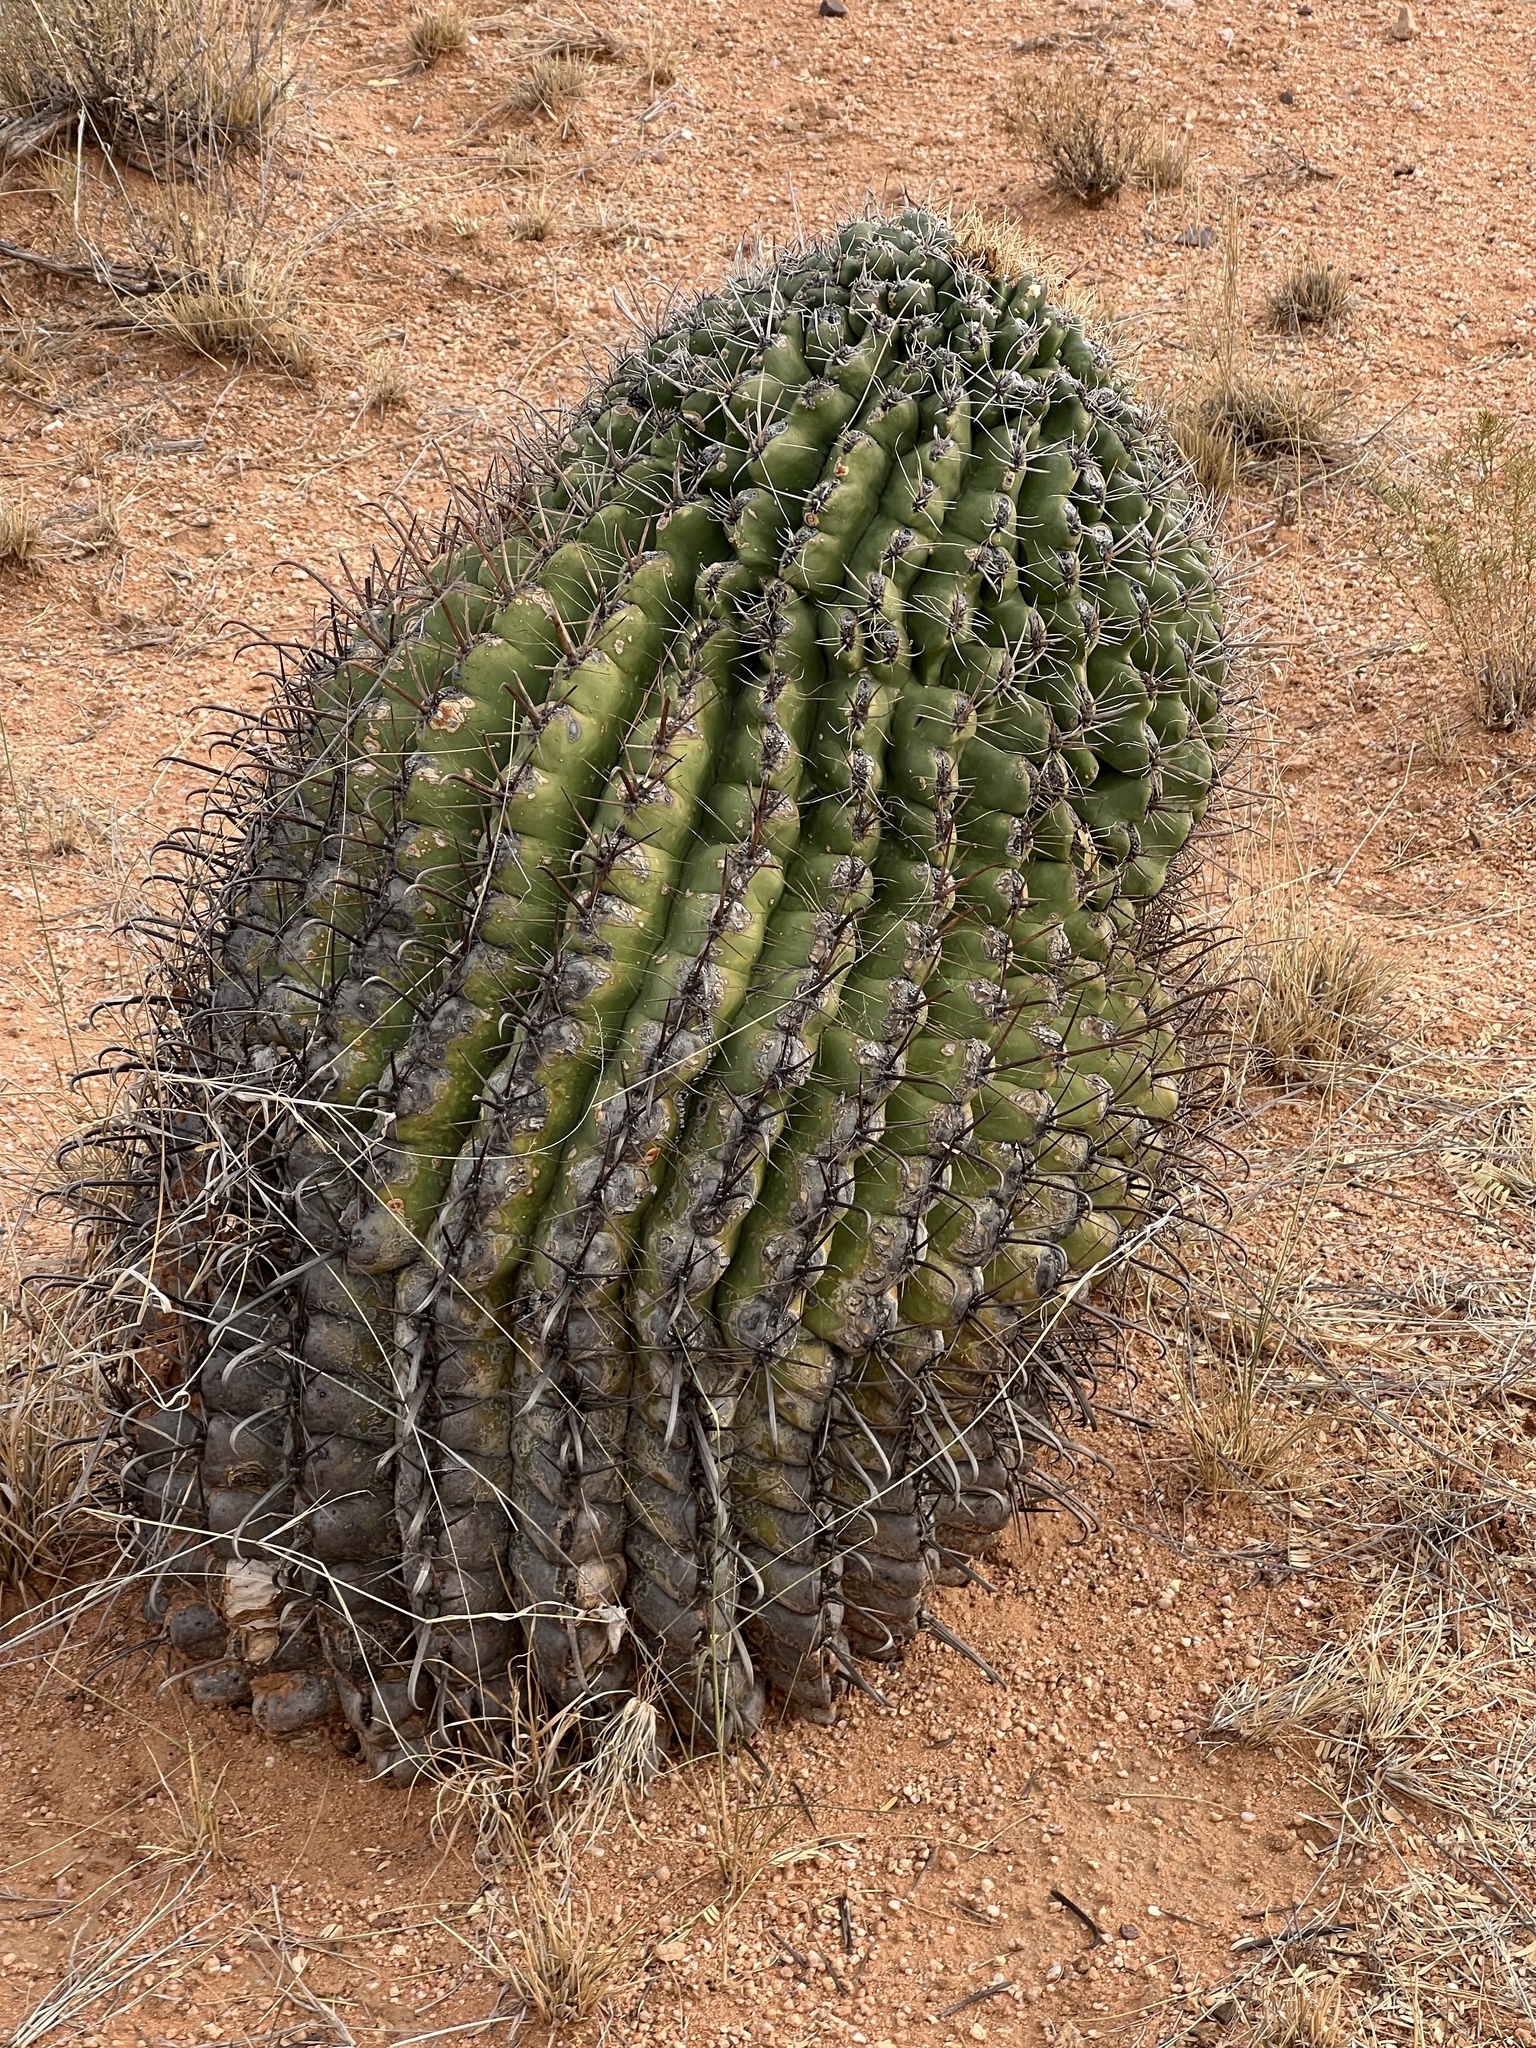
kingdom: Plantae
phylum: Tracheophyta
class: Magnoliopsida
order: Caryophyllales
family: Cactaceae
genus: Ferocactus
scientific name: Ferocactus wislizeni
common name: Candy barrel cactus
